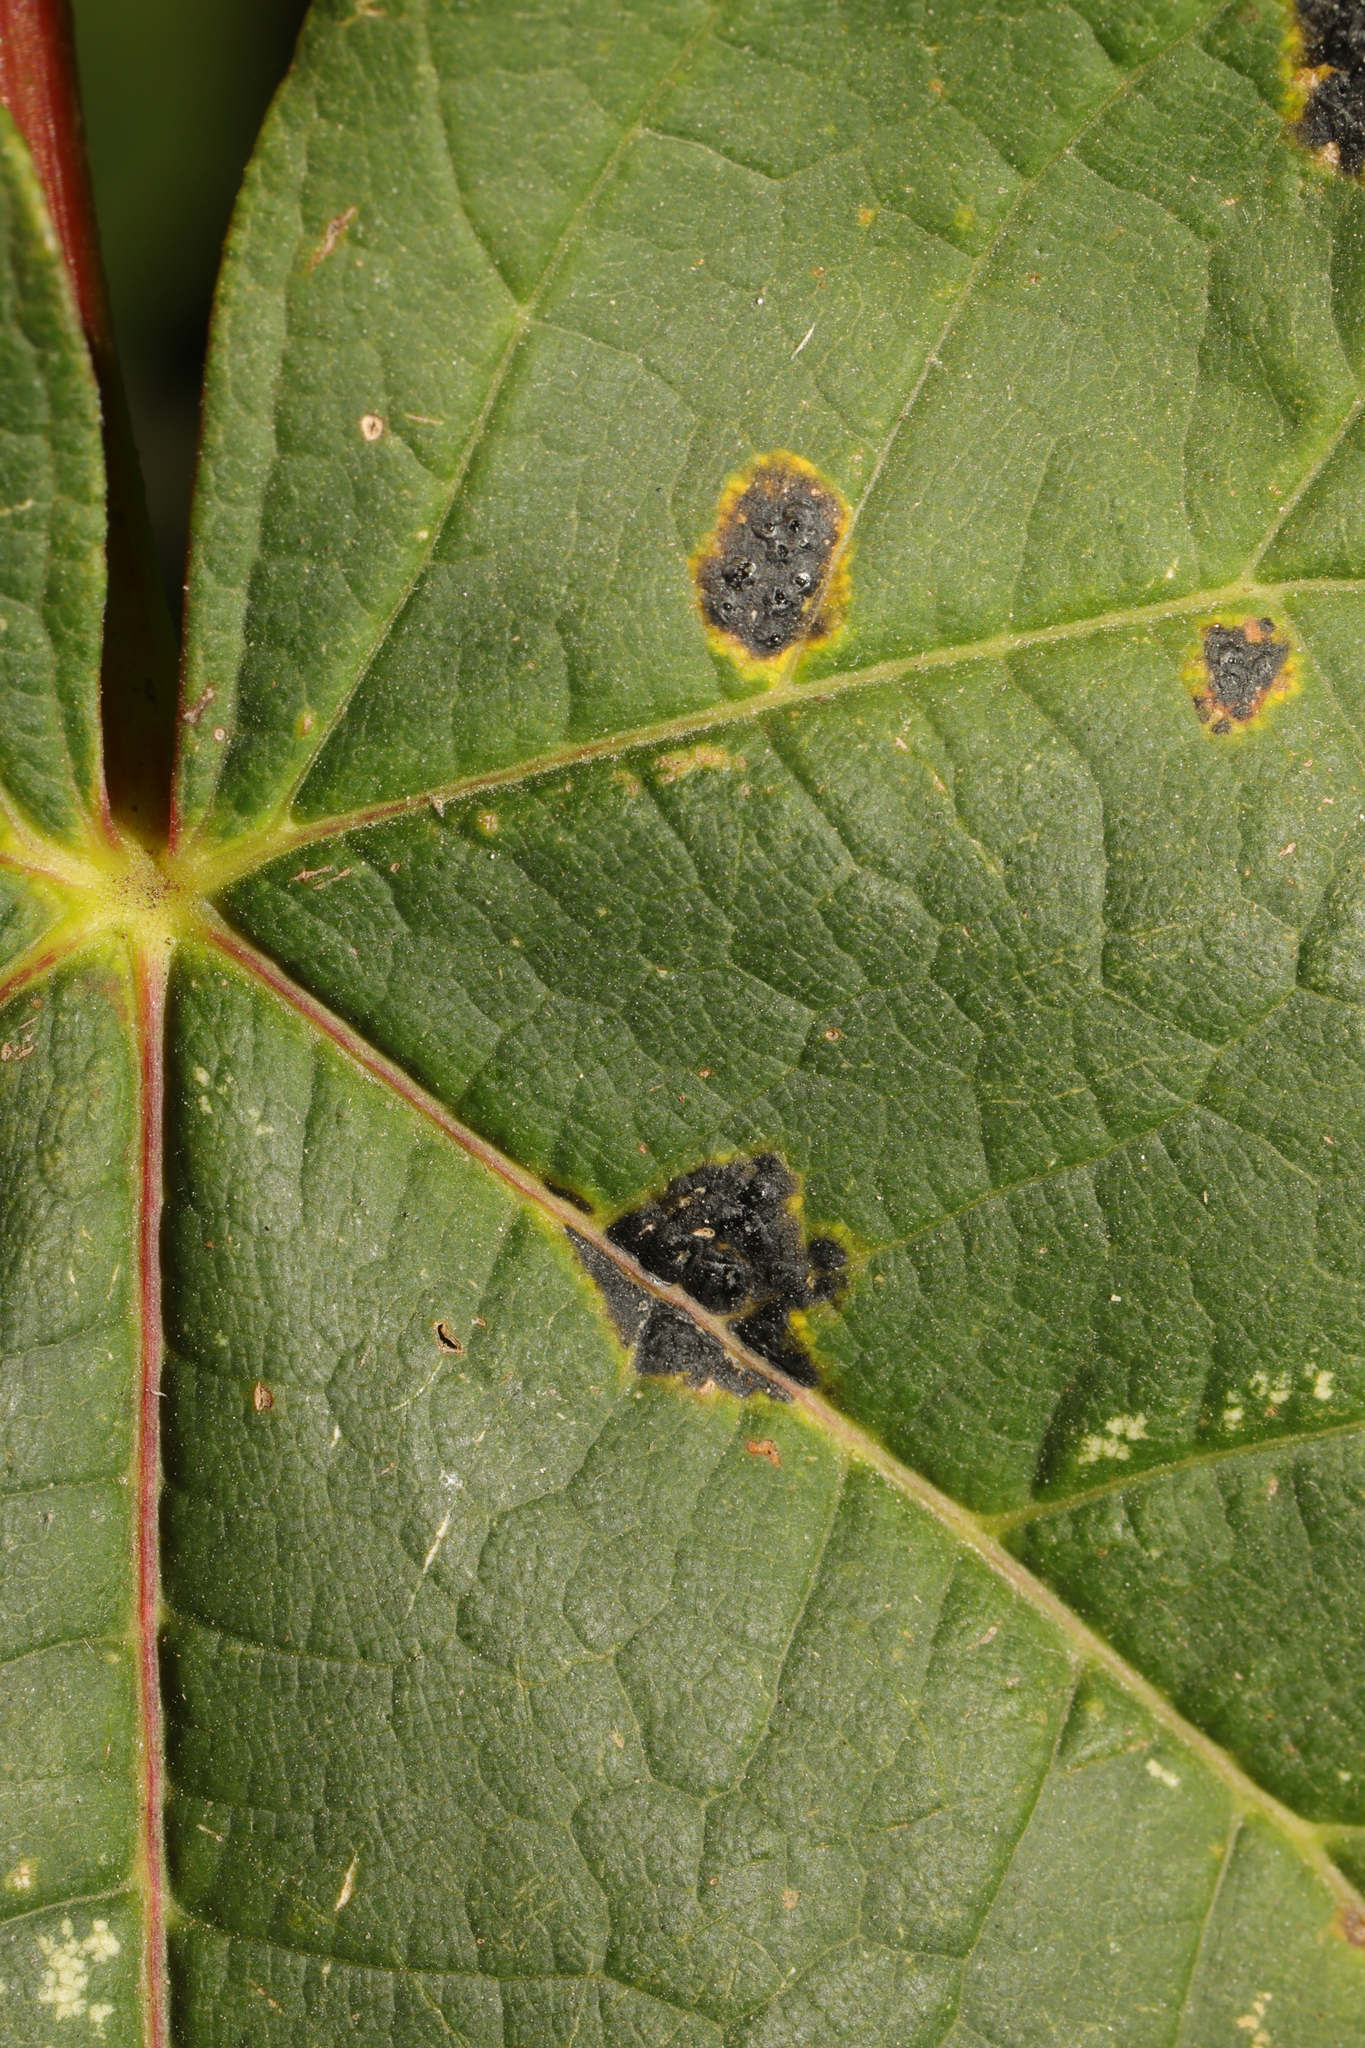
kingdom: Fungi
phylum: Ascomycota
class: Leotiomycetes
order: Rhytismatales
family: Rhytismataceae
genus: Rhytisma
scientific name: Rhytisma acerinum
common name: European tar spot
